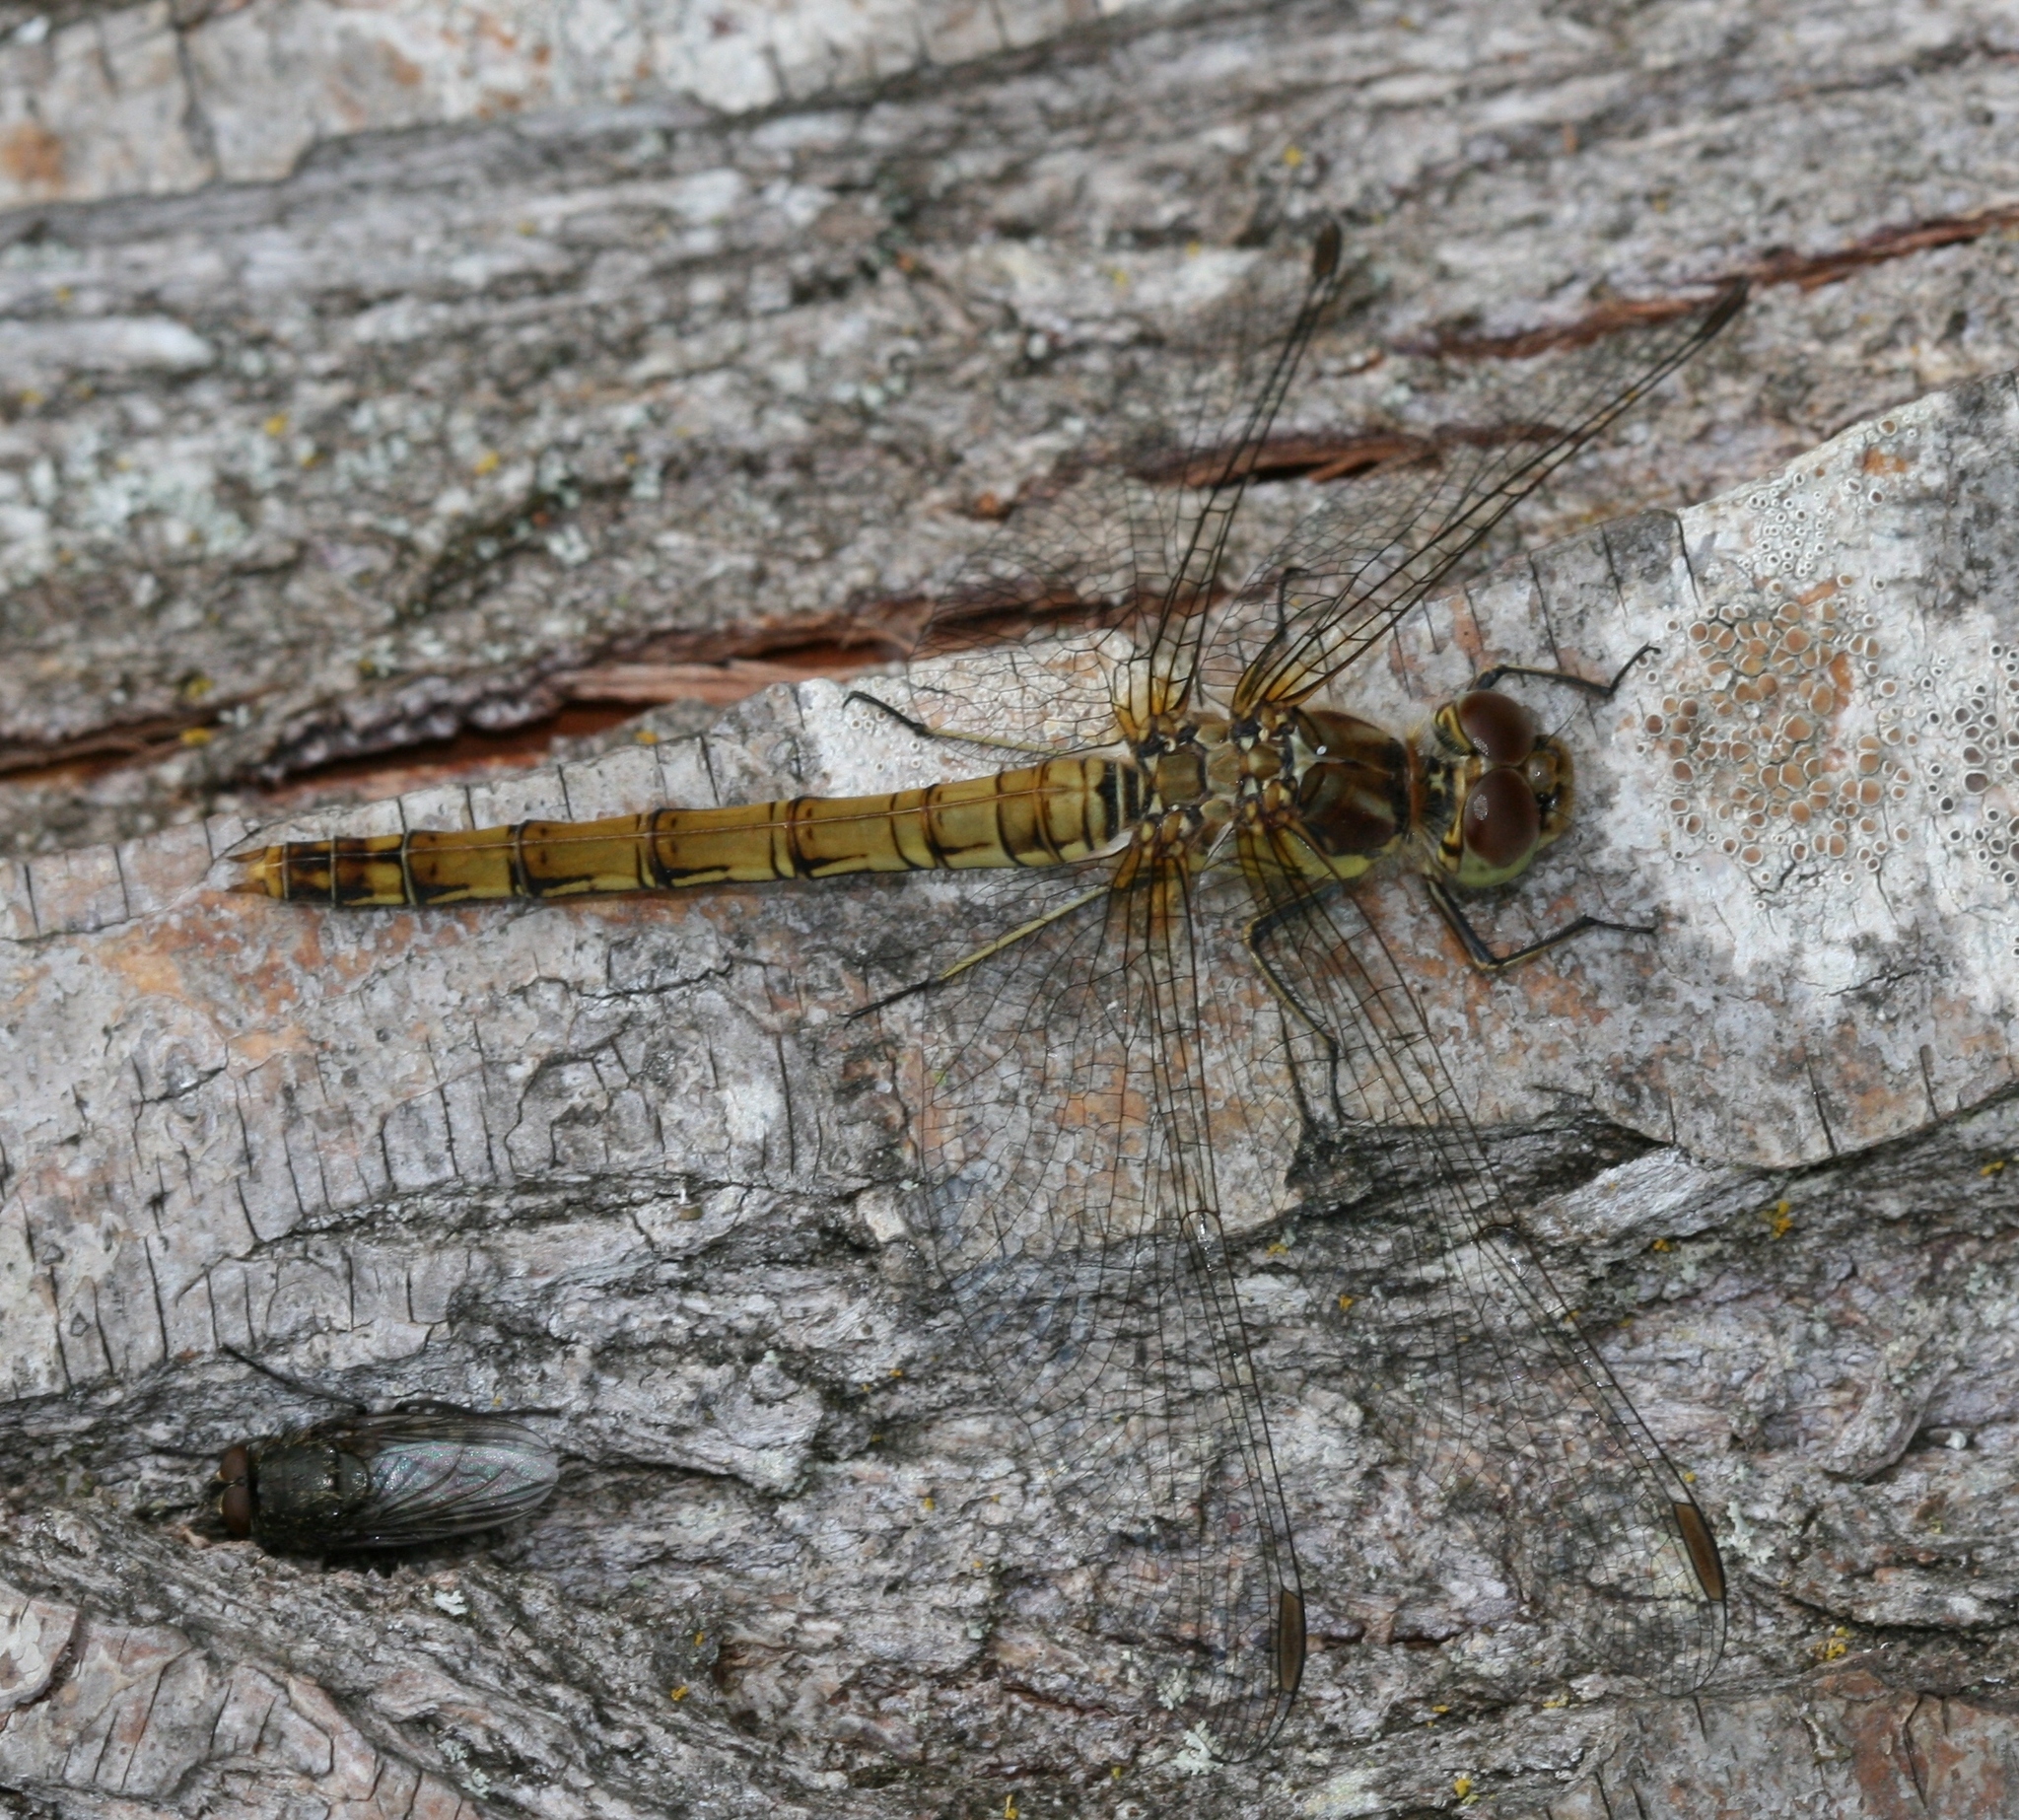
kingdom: Animalia
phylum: Arthropoda
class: Insecta
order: Odonata
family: Libellulidae
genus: Sympetrum
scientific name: Sympetrum striolatum
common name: Common darter
